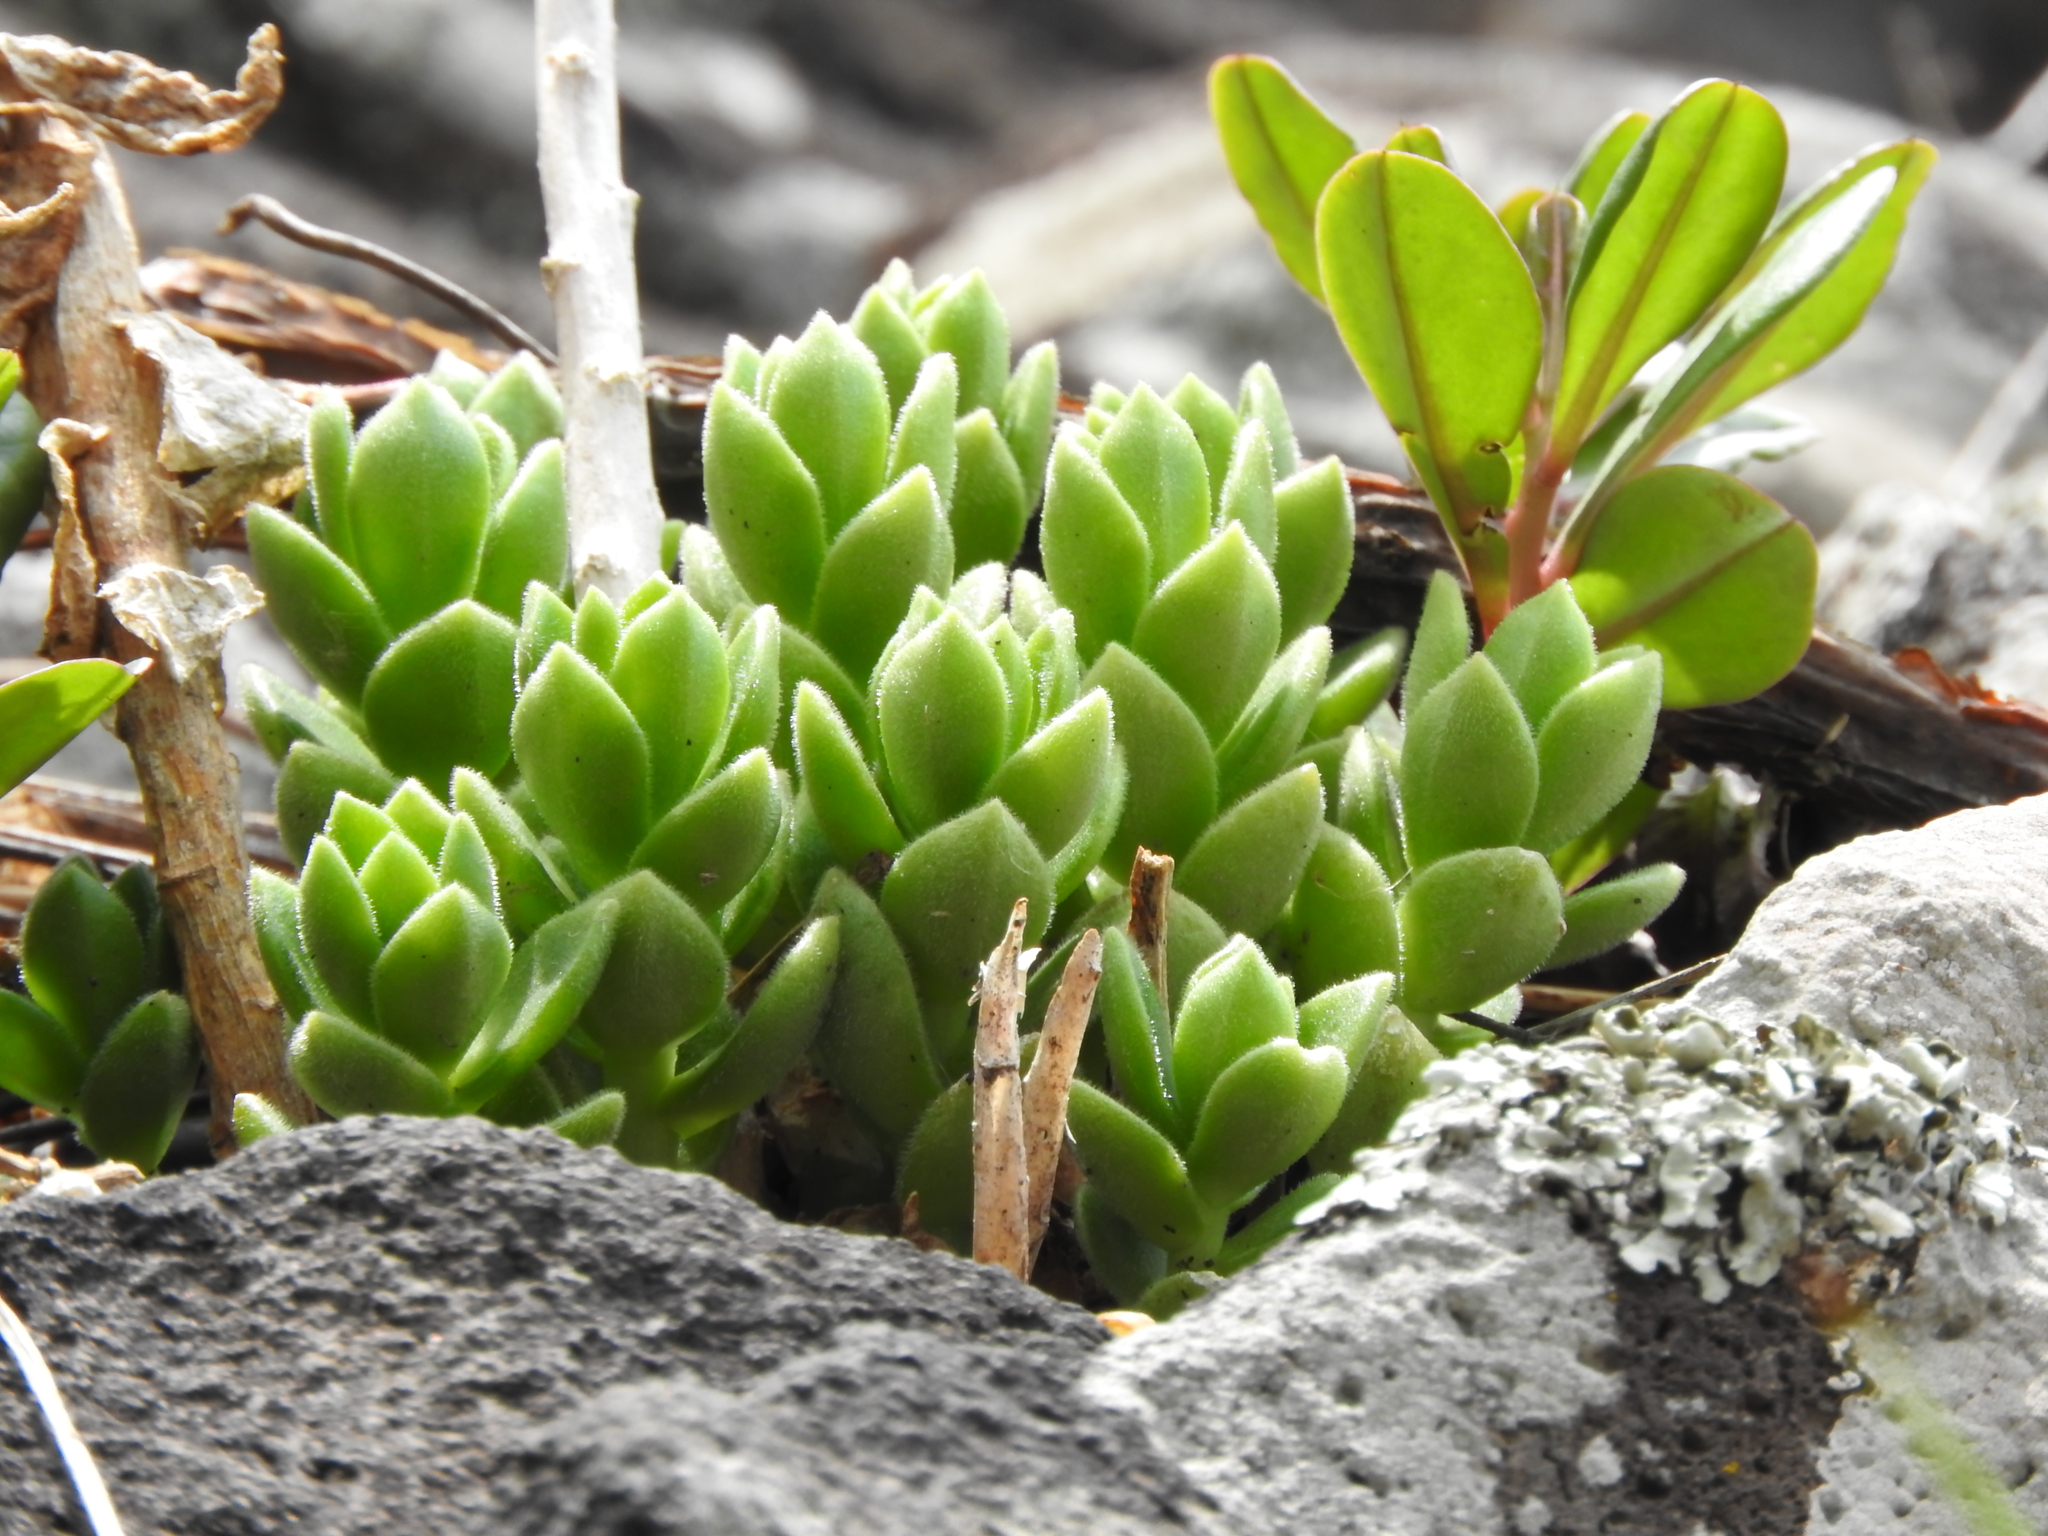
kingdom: Plantae
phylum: Tracheophyta
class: Magnoliopsida
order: Saxifragales
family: Crassulaceae
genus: Sedum
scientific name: Sedum ebracteatum
